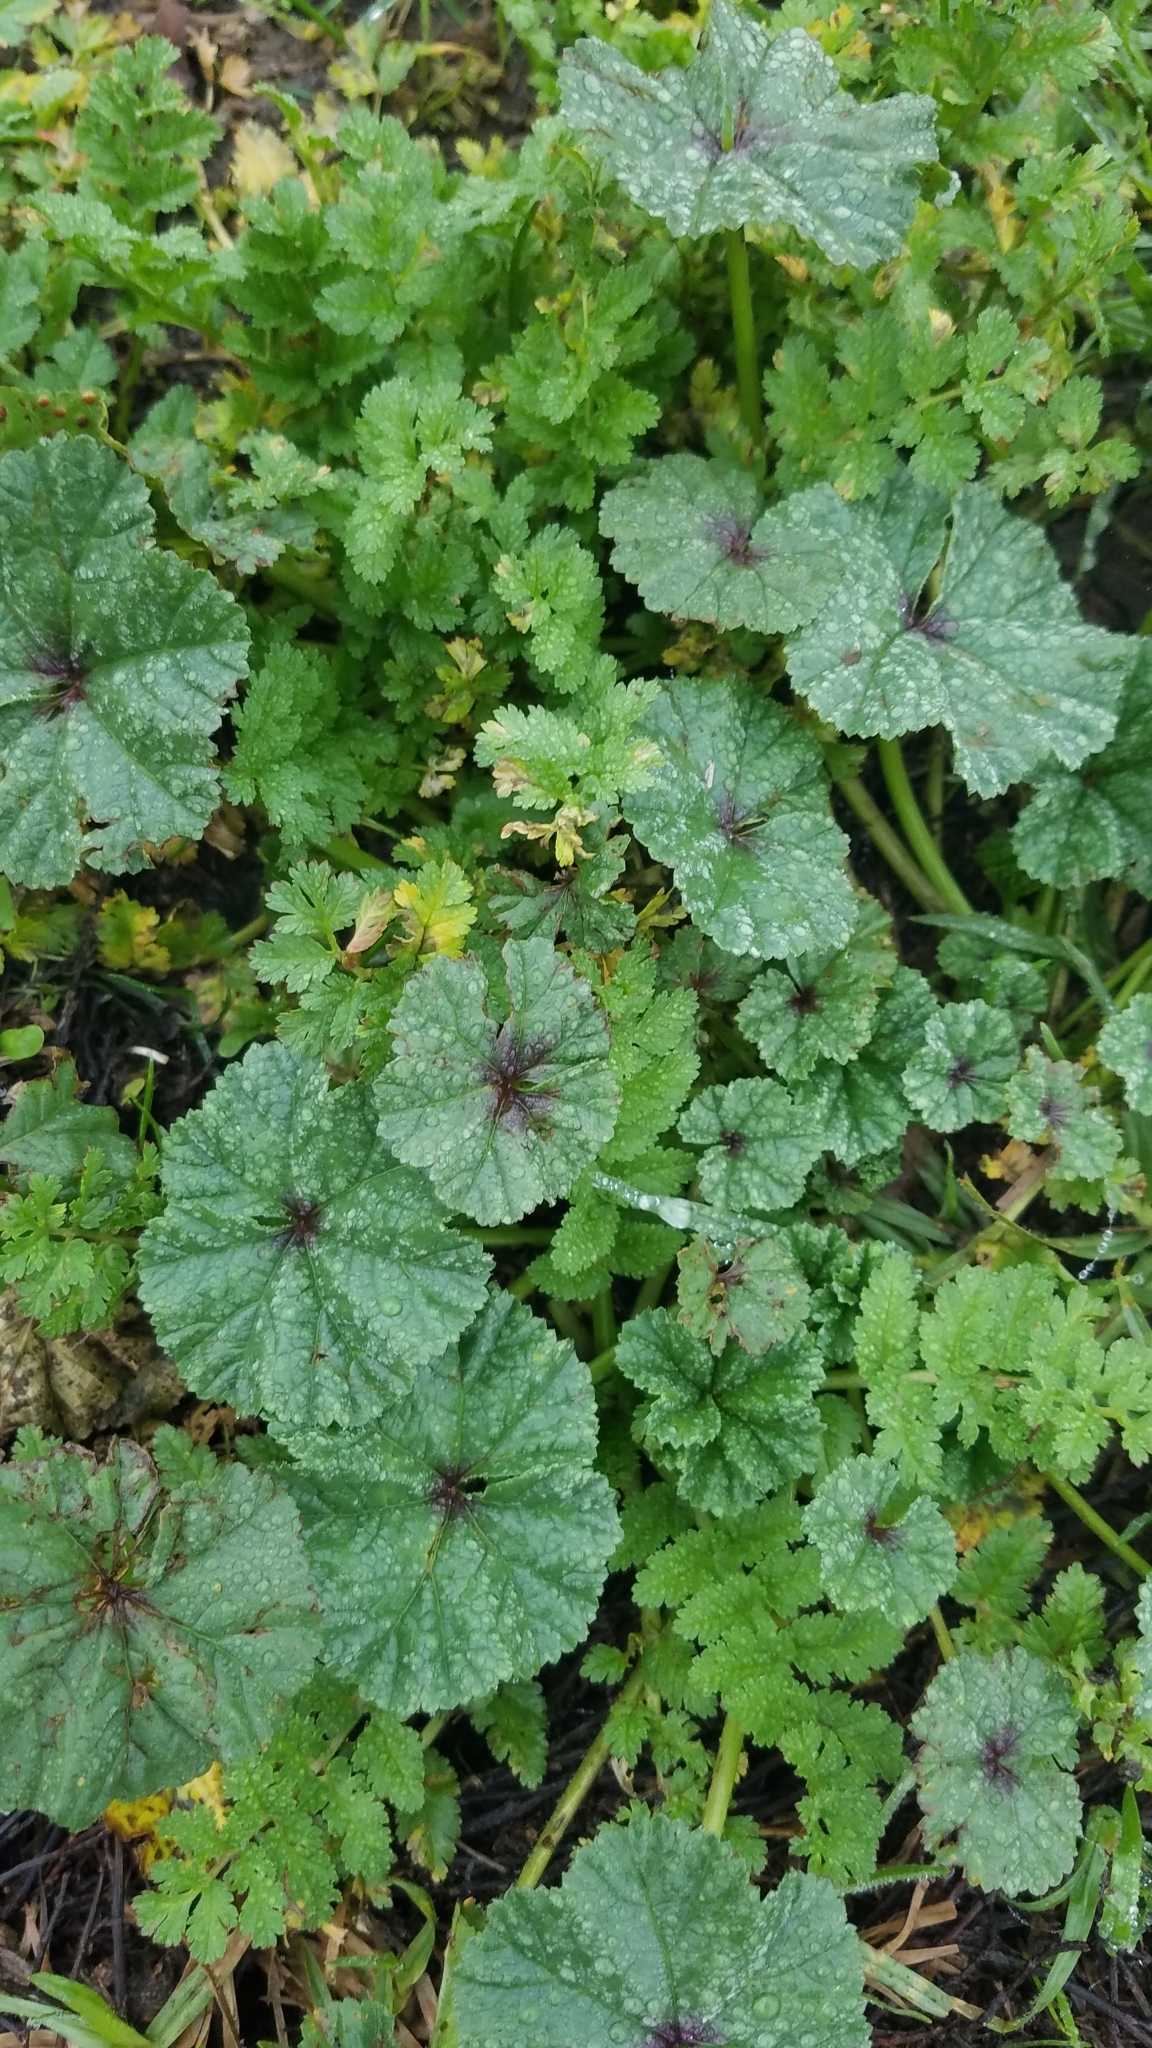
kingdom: Plantae
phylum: Tracheophyta
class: Magnoliopsida
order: Malvales
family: Malvaceae
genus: Malva
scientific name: Malva
